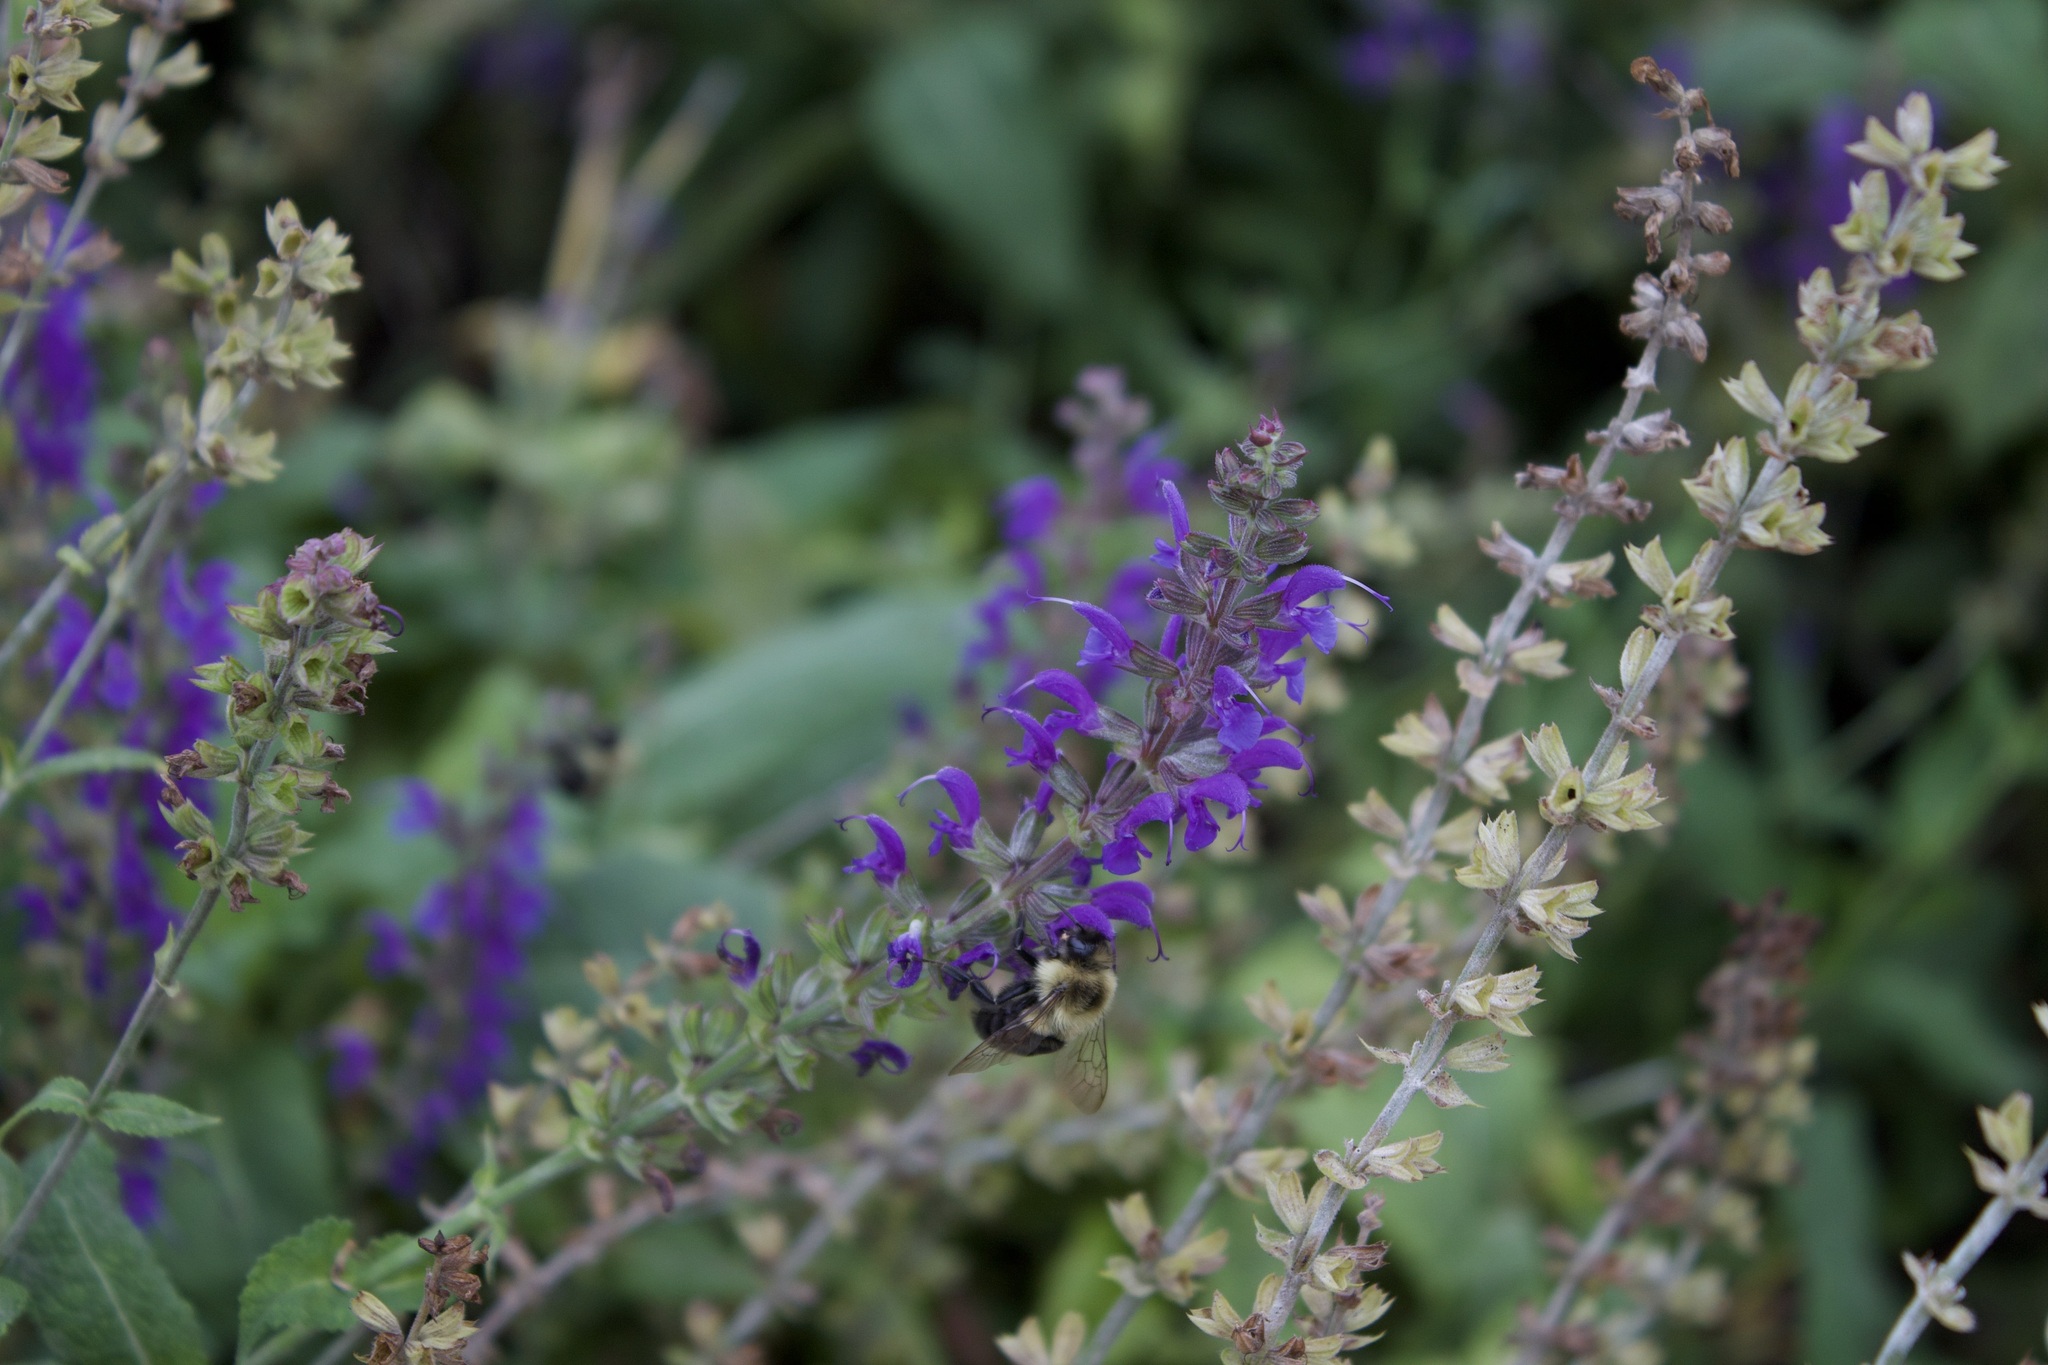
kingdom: Animalia
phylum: Arthropoda
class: Insecta
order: Hymenoptera
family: Apidae
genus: Bombus
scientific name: Bombus impatiens
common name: Common eastern bumble bee
